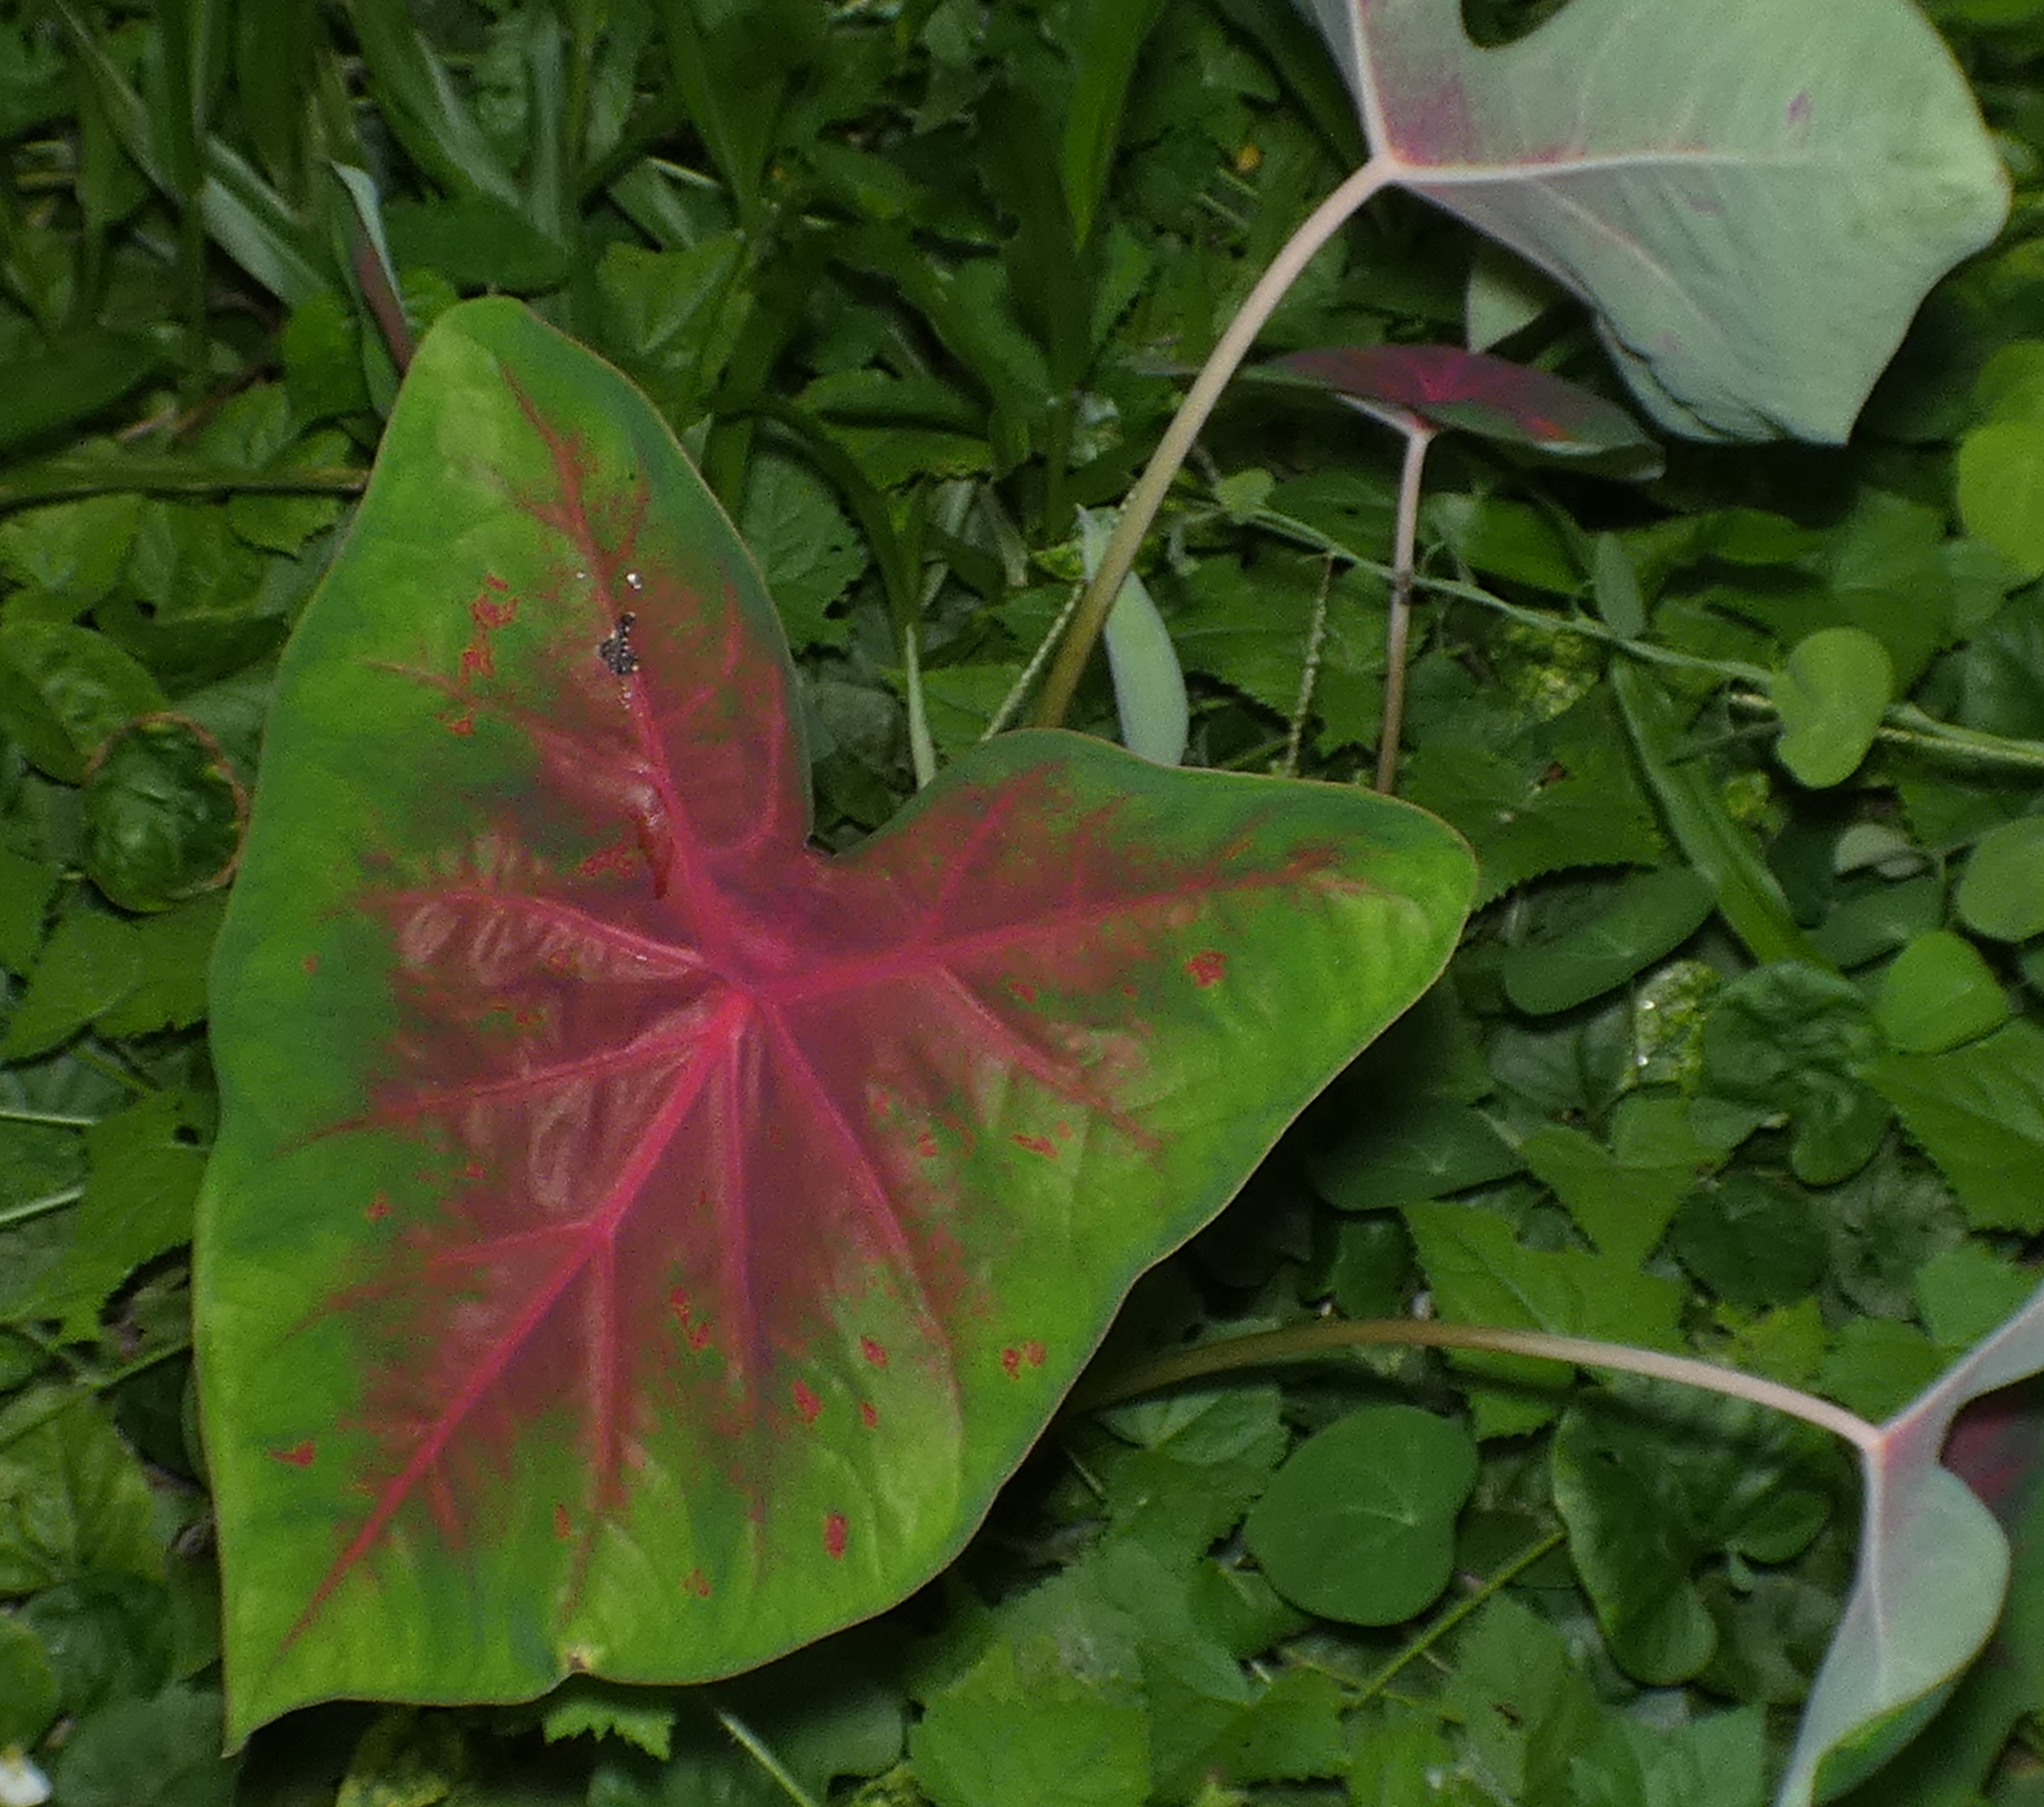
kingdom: Plantae
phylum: Tracheophyta
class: Liliopsida
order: Alismatales
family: Araceae
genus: Caladium
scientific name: Caladium bicolor
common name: Artist's pallet
